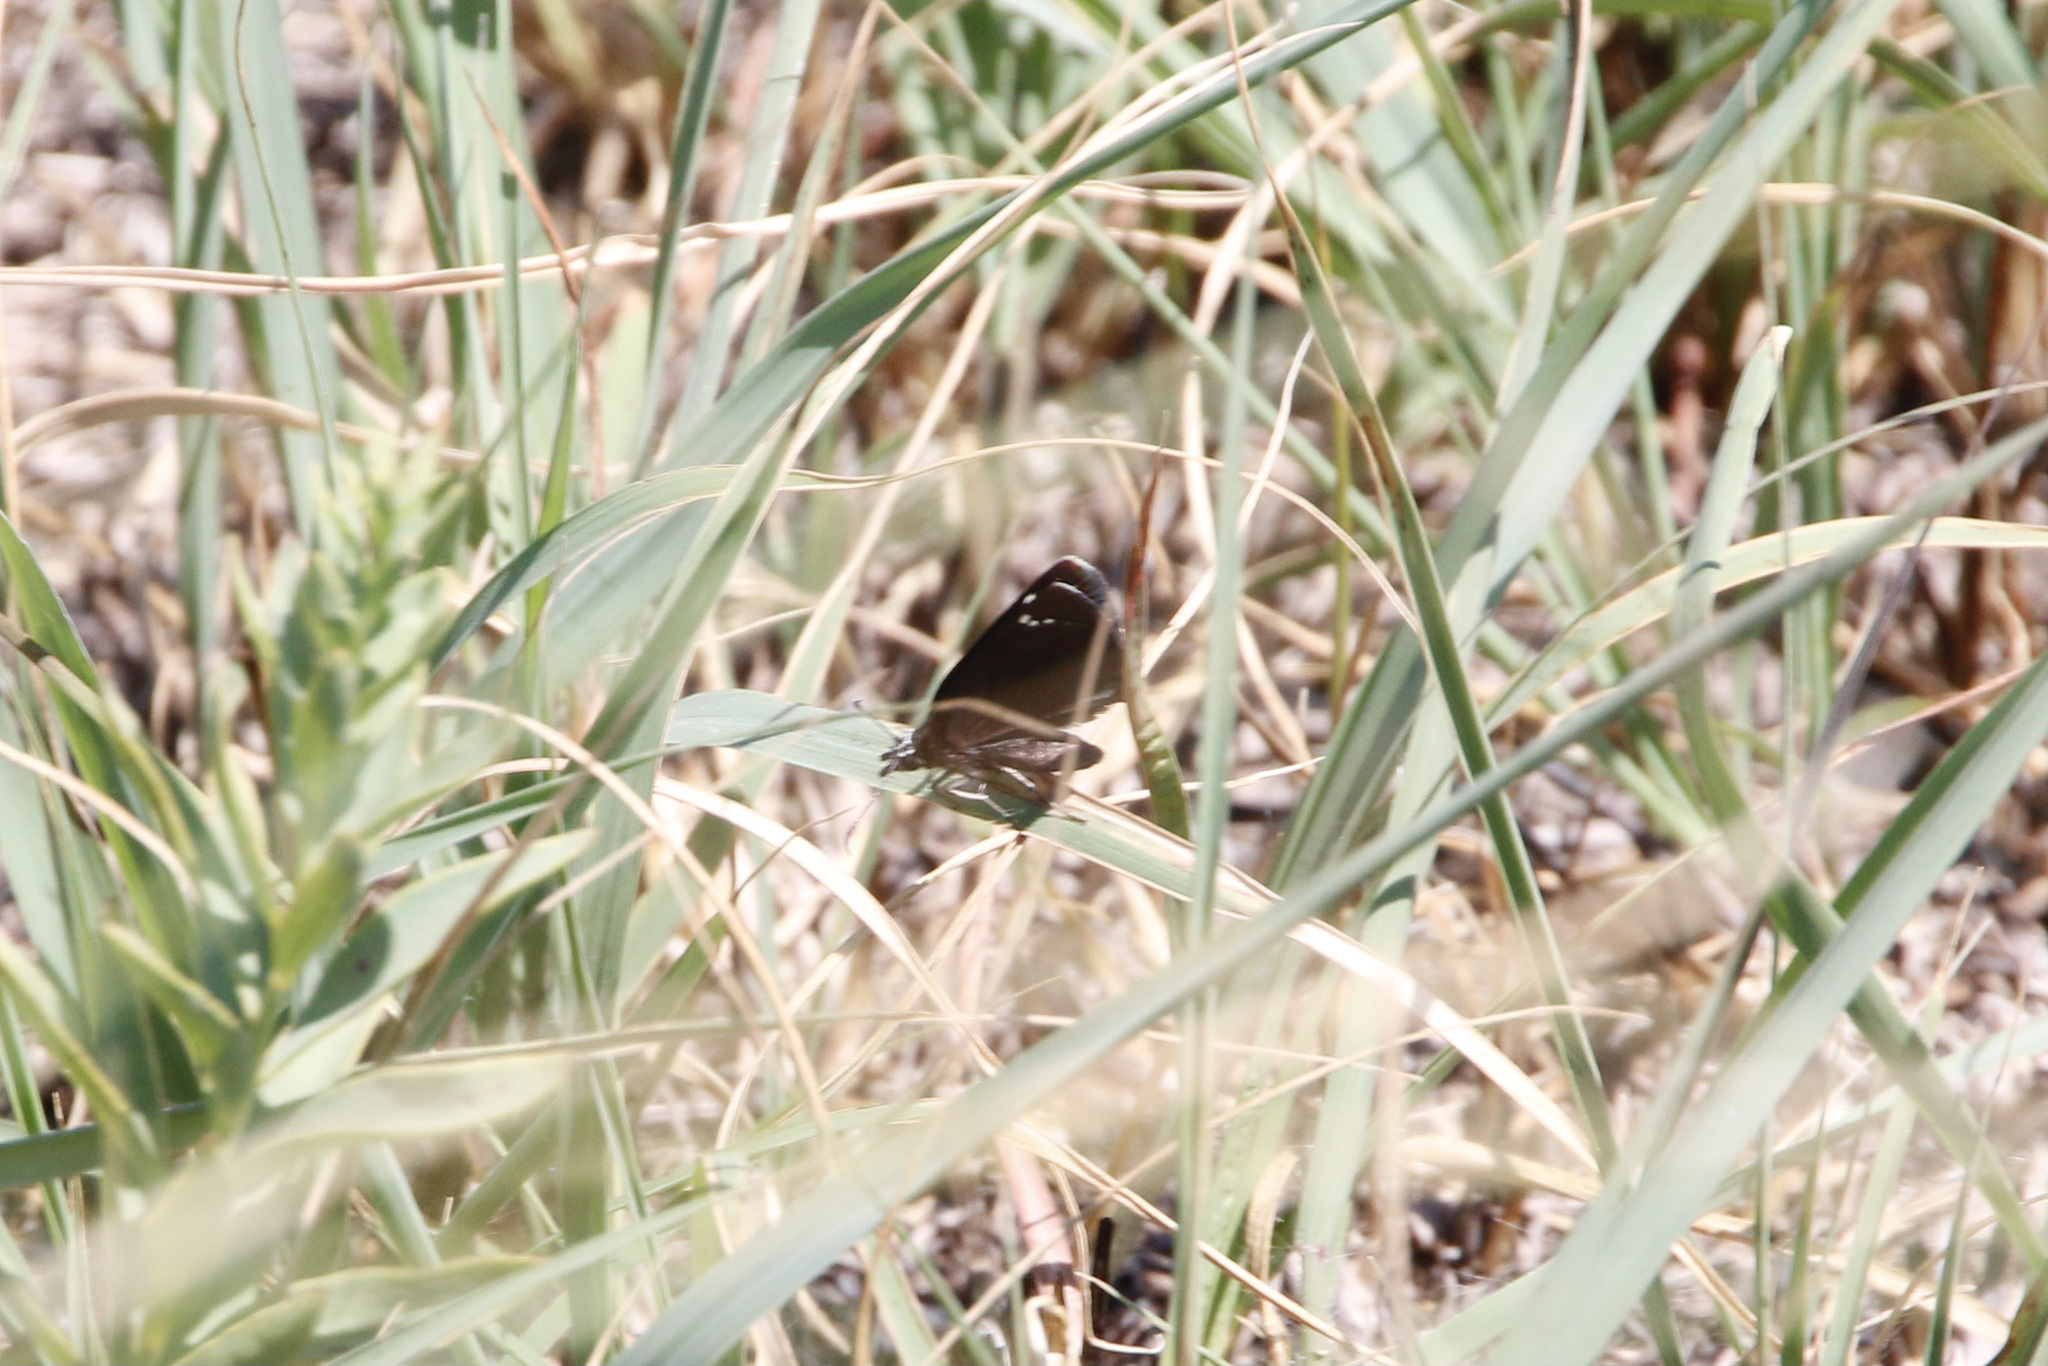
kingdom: Animalia
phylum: Arthropoda
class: Insecta
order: Lepidoptera
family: Hesperiidae
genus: Pholisora
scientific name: Pholisora catullus
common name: Common sootywing
